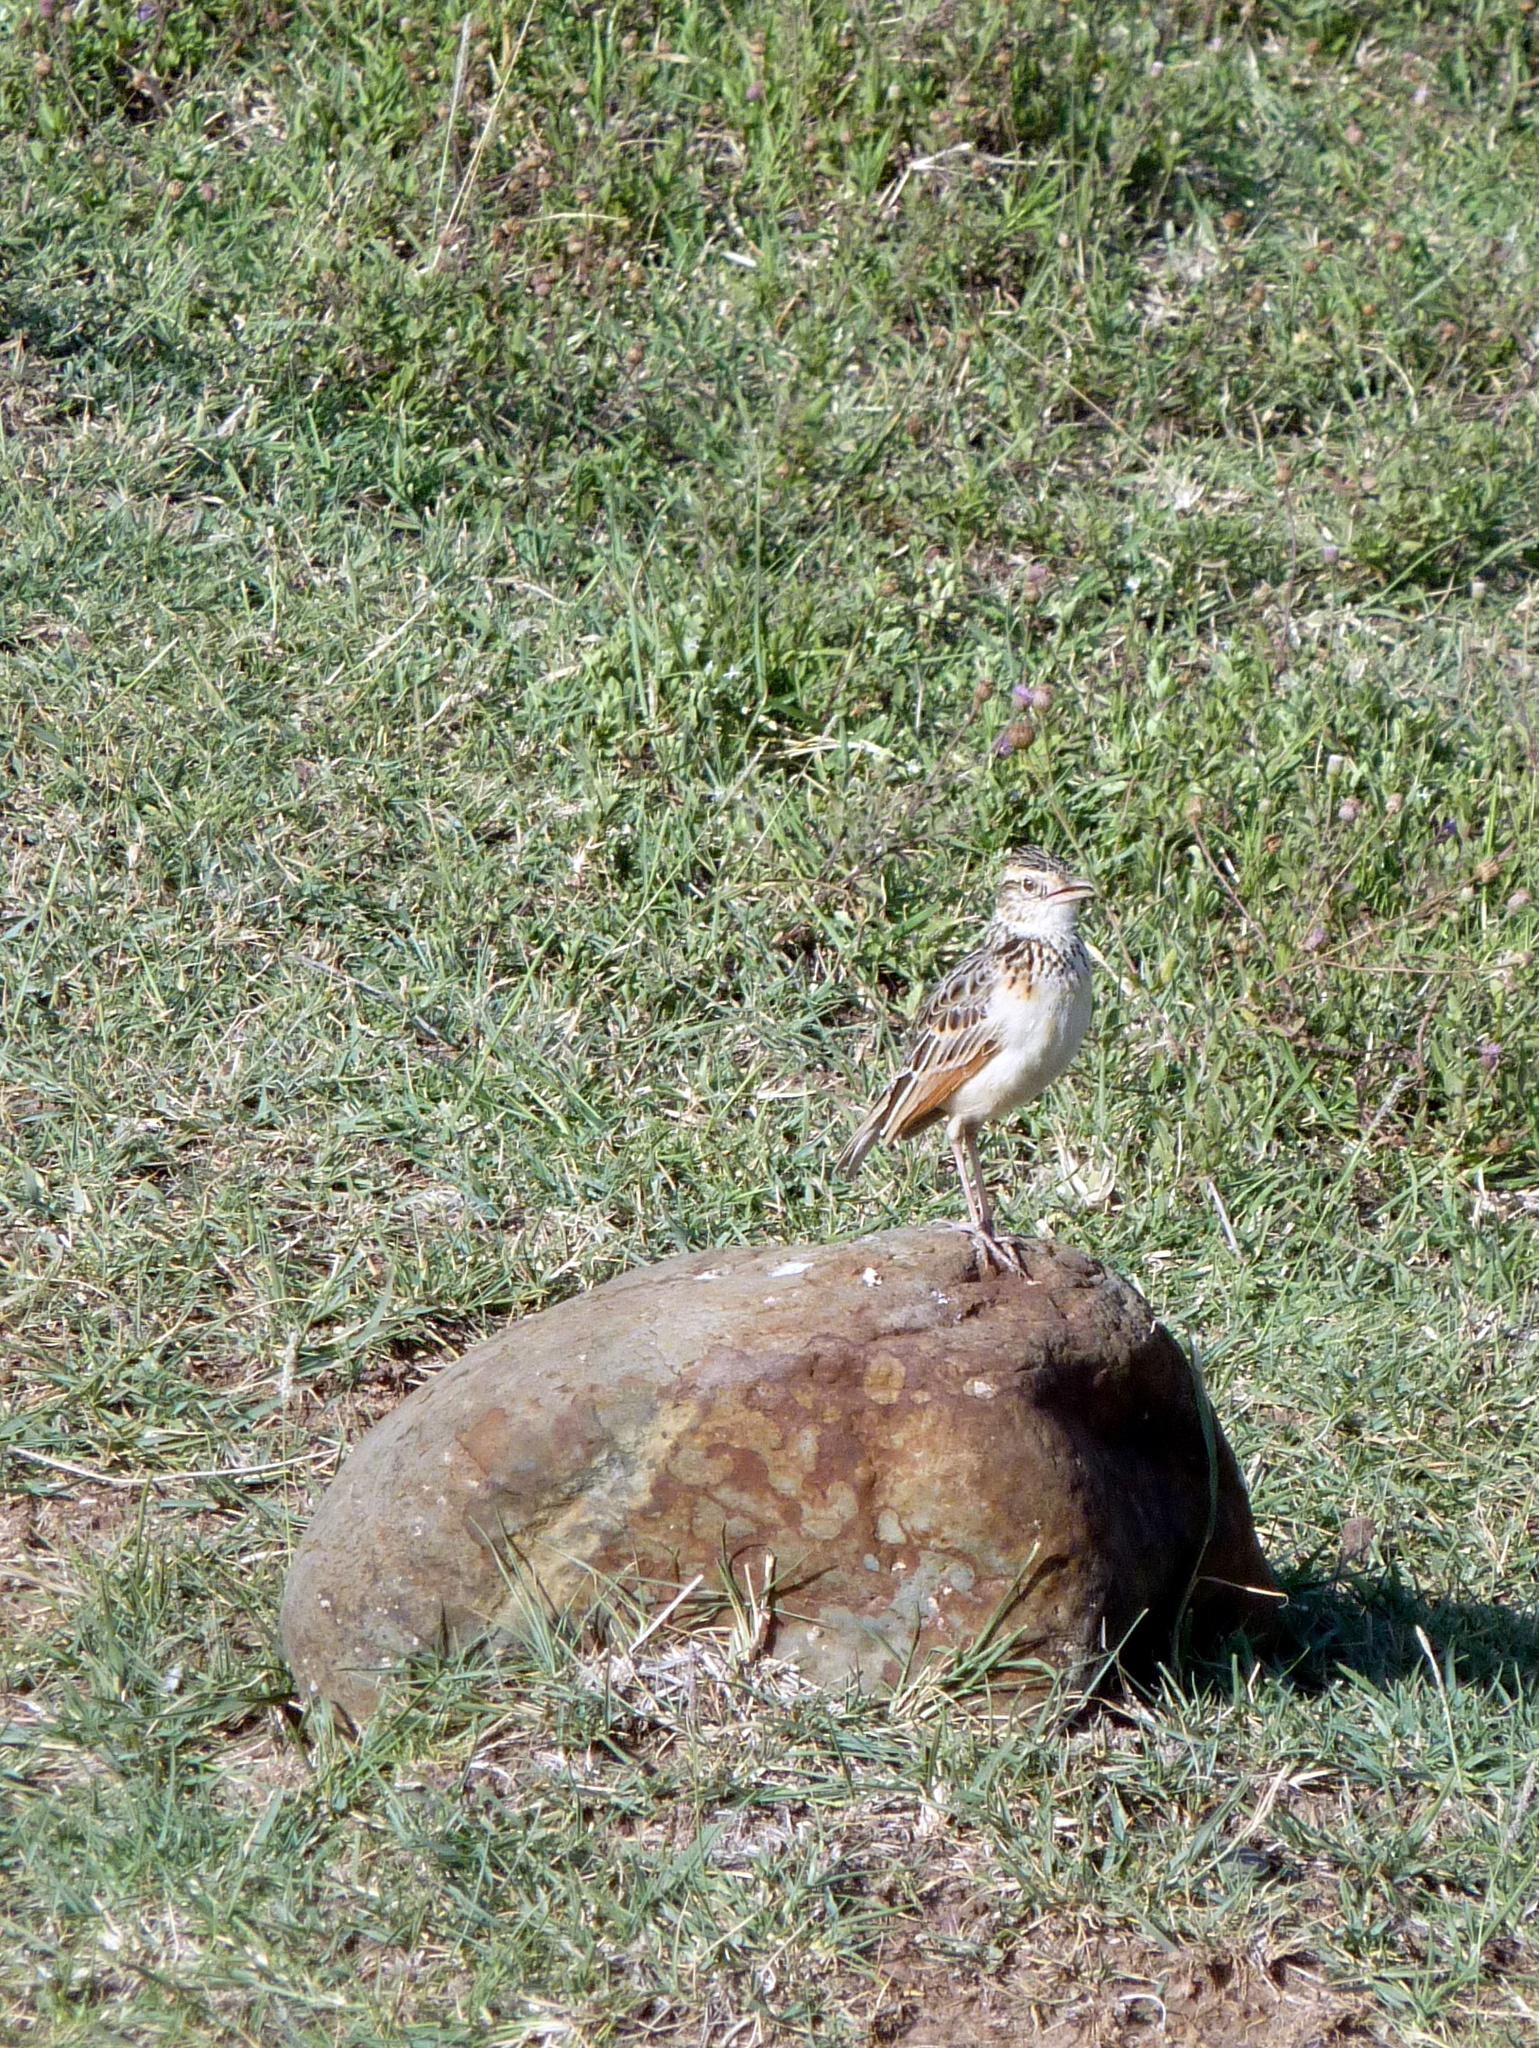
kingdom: Animalia
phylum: Chordata
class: Aves
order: Passeriformes
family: Alaudidae
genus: Mirafra
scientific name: Mirafra africana
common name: Rufous-naped lark
